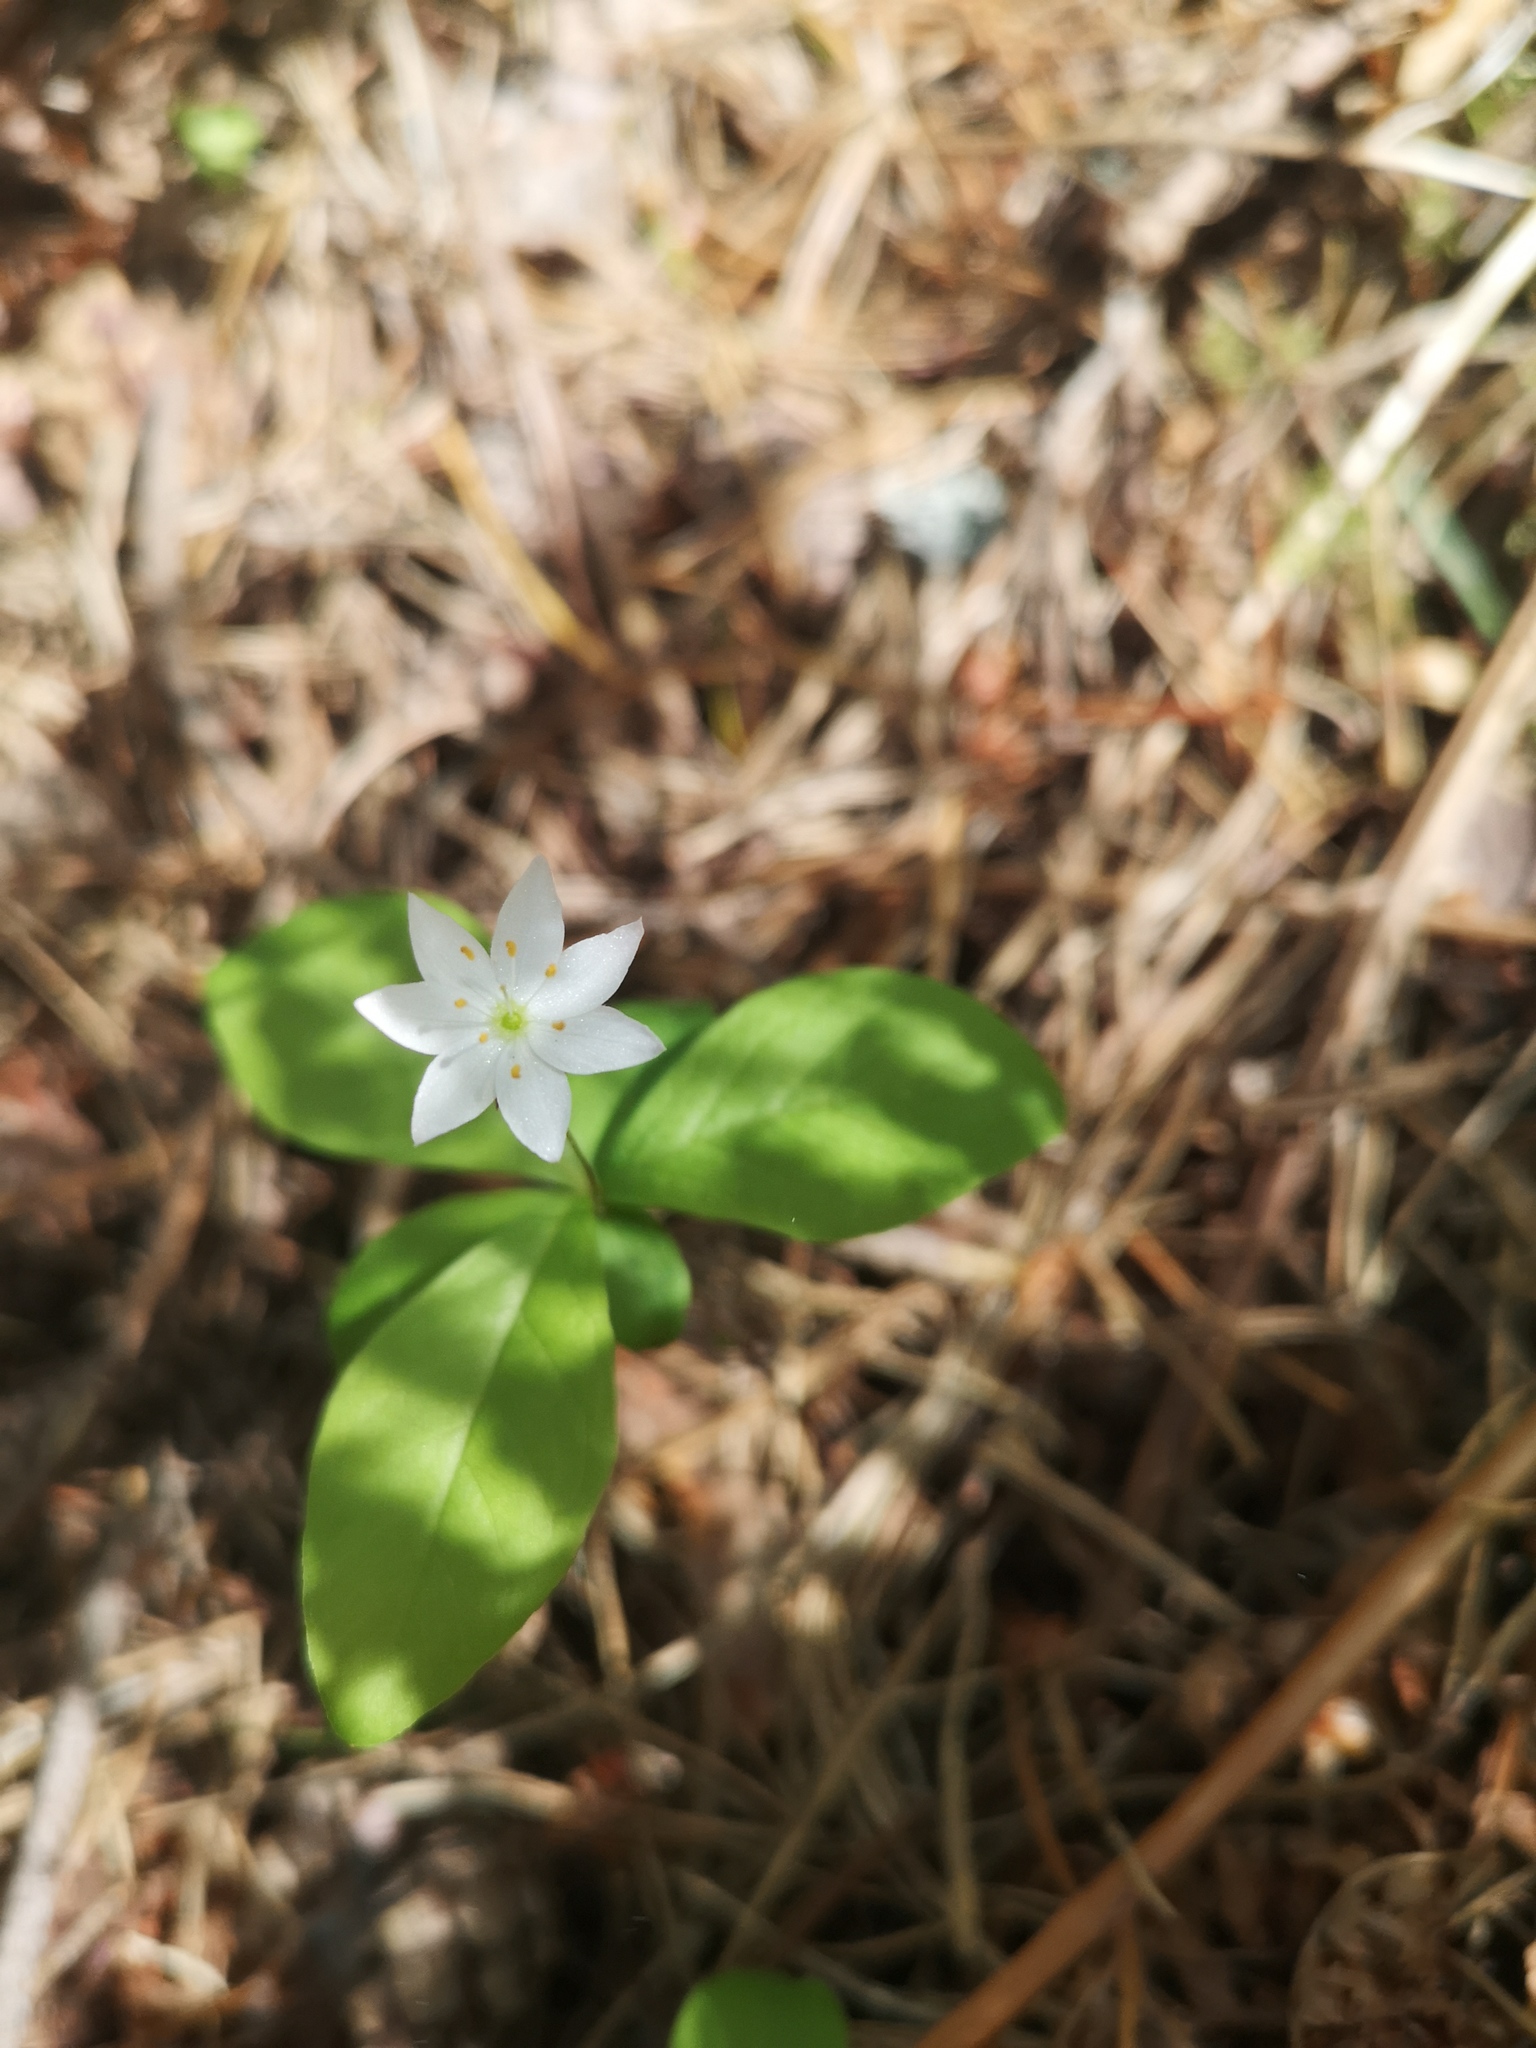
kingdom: Plantae
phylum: Tracheophyta
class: Magnoliopsida
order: Ericales
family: Primulaceae
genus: Lysimachia
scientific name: Lysimachia europaea
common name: Arctic starflower
